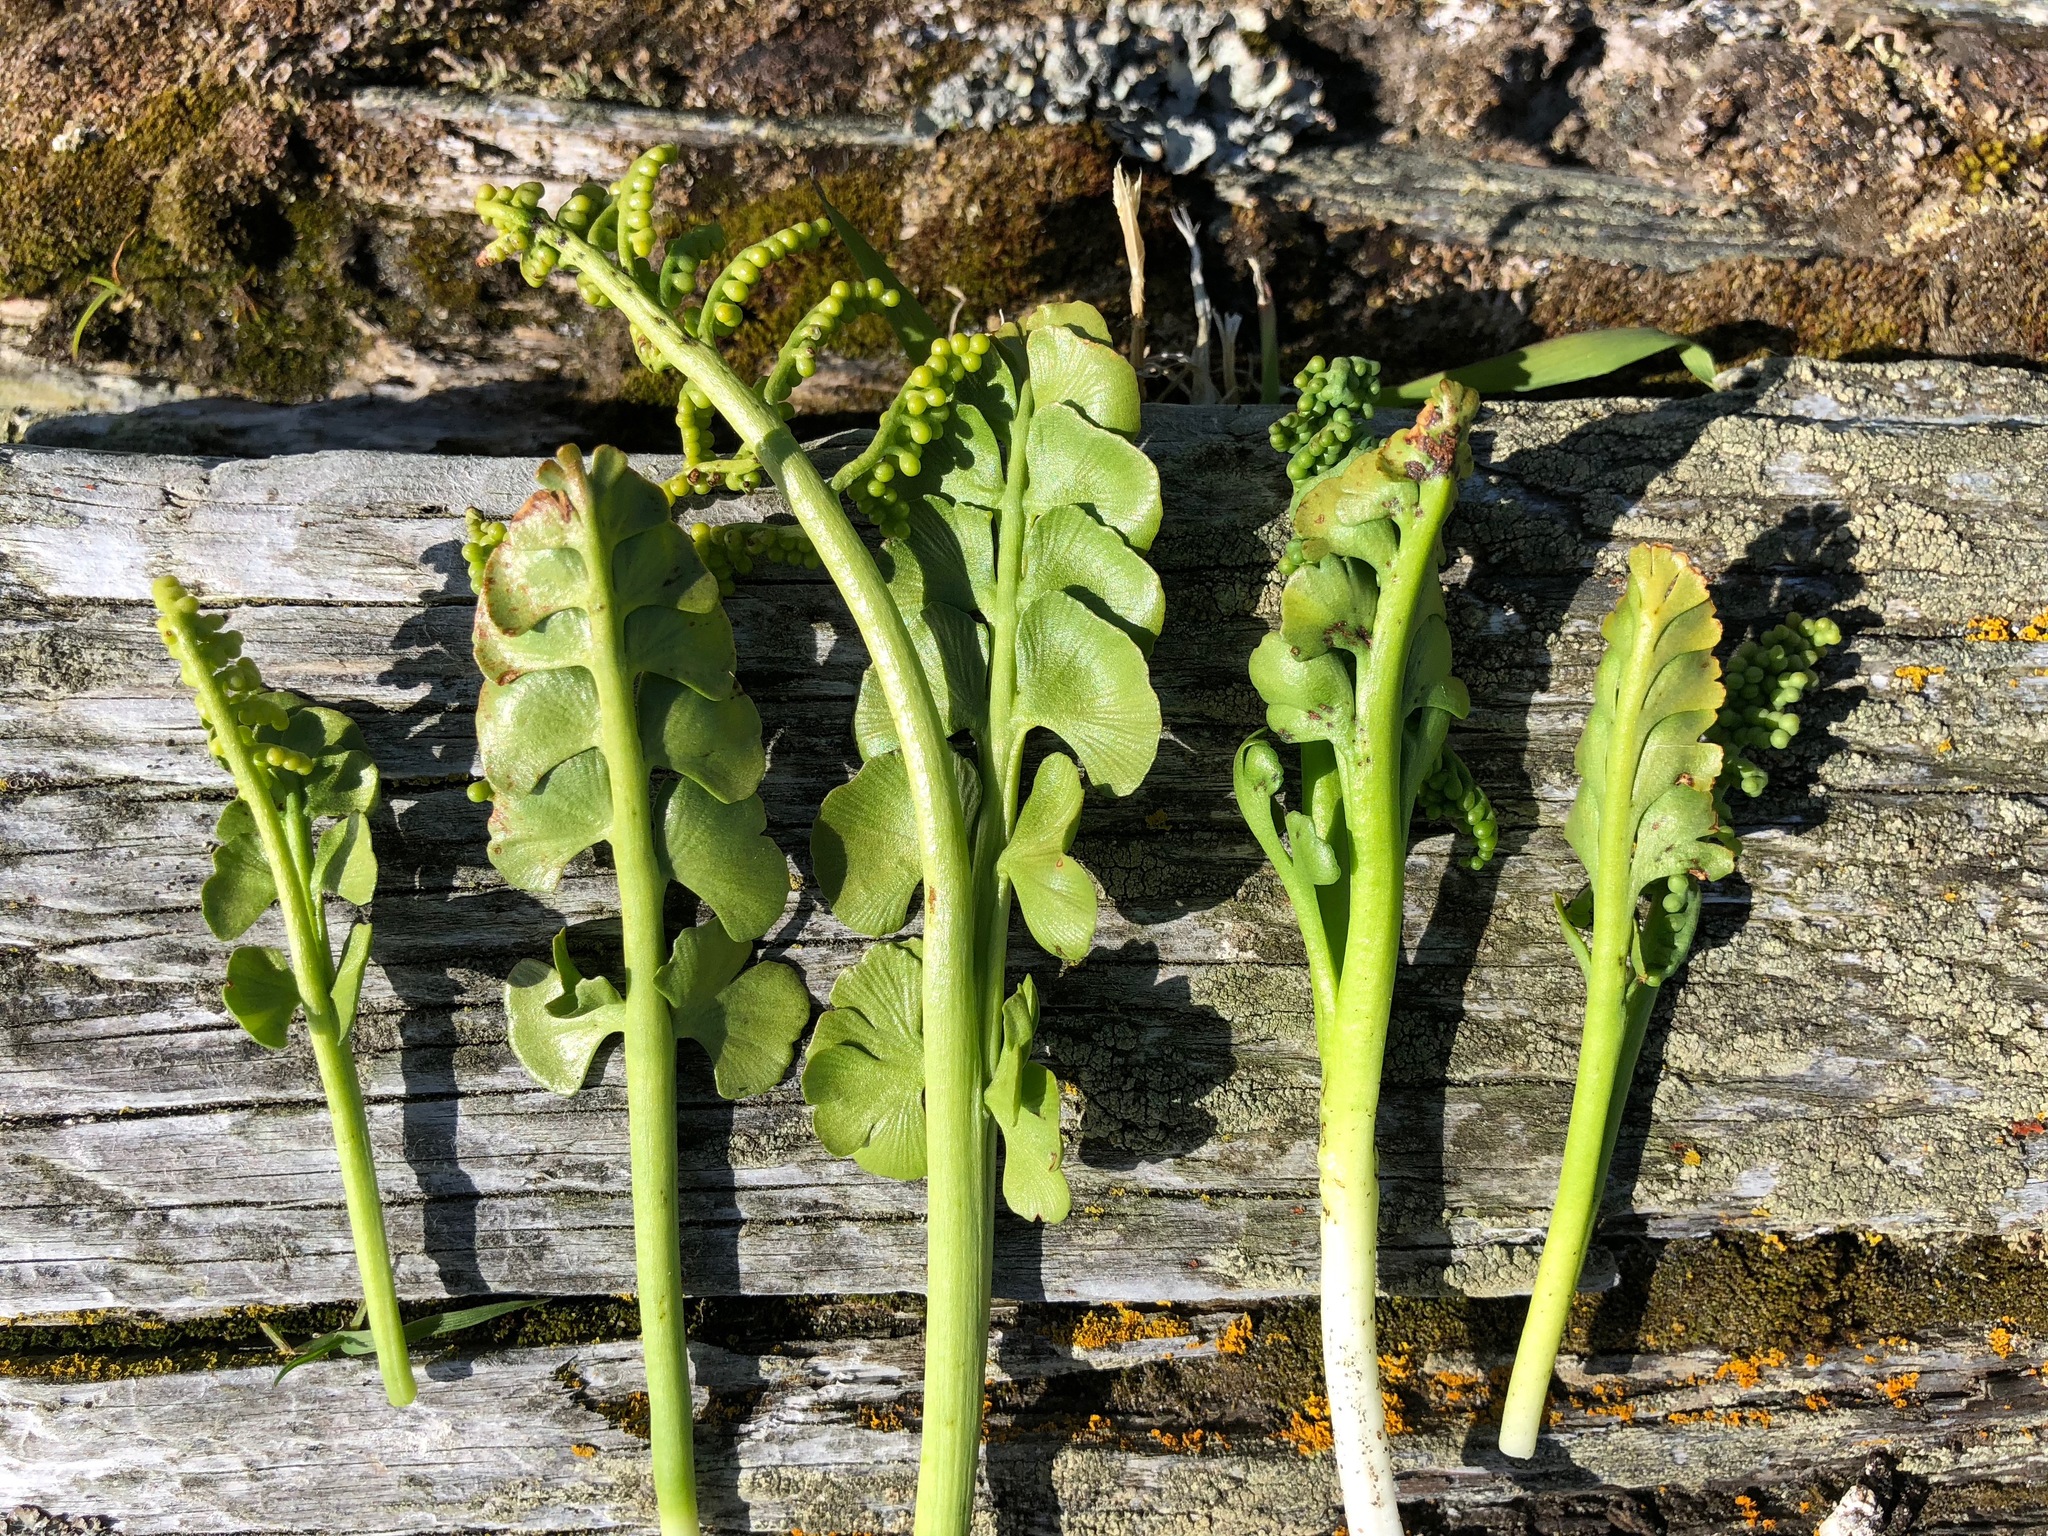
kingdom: Plantae
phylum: Tracheophyta
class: Polypodiopsida
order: Ophioglossales
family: Ophioglossaceae
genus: Botrychium
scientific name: Botrychium minganense
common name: Mingan grapefern
